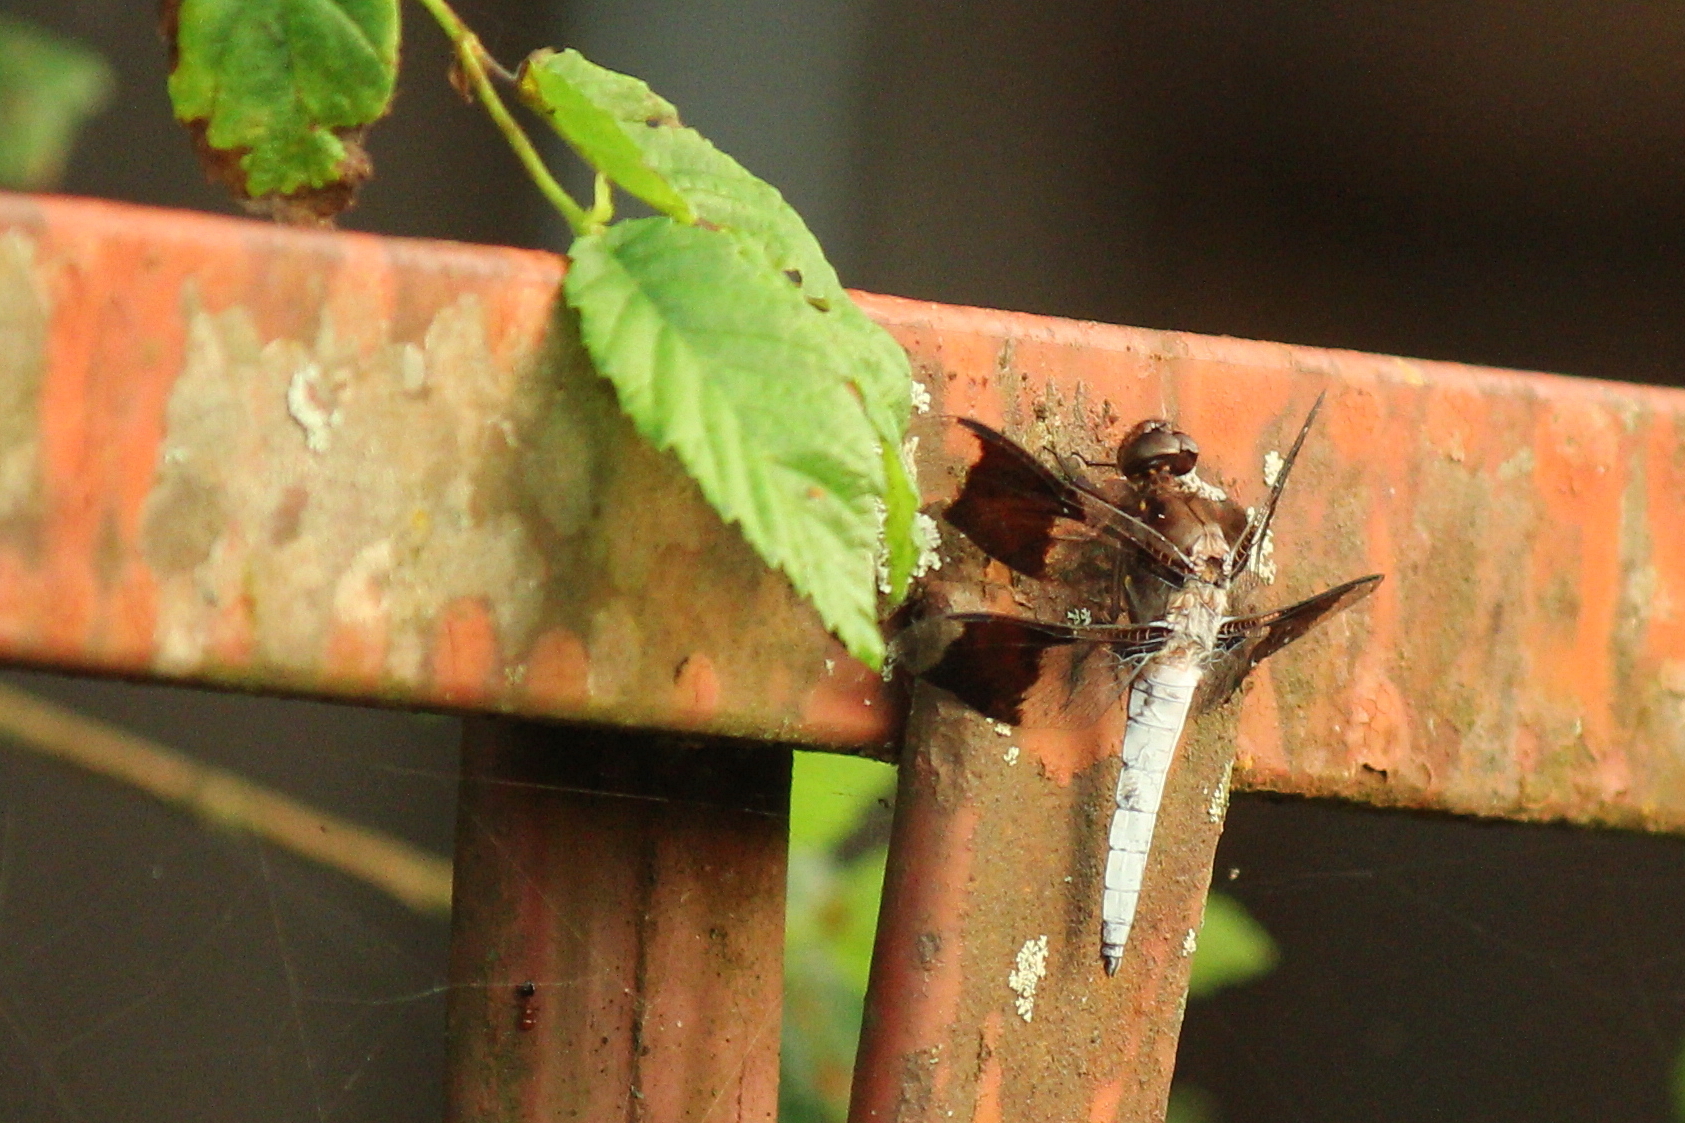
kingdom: Animalia
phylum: Arthropoda
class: Insecta
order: Odonata
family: Libellulidae
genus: Plathemis
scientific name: Plathemis lydia
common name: Common whitetail
